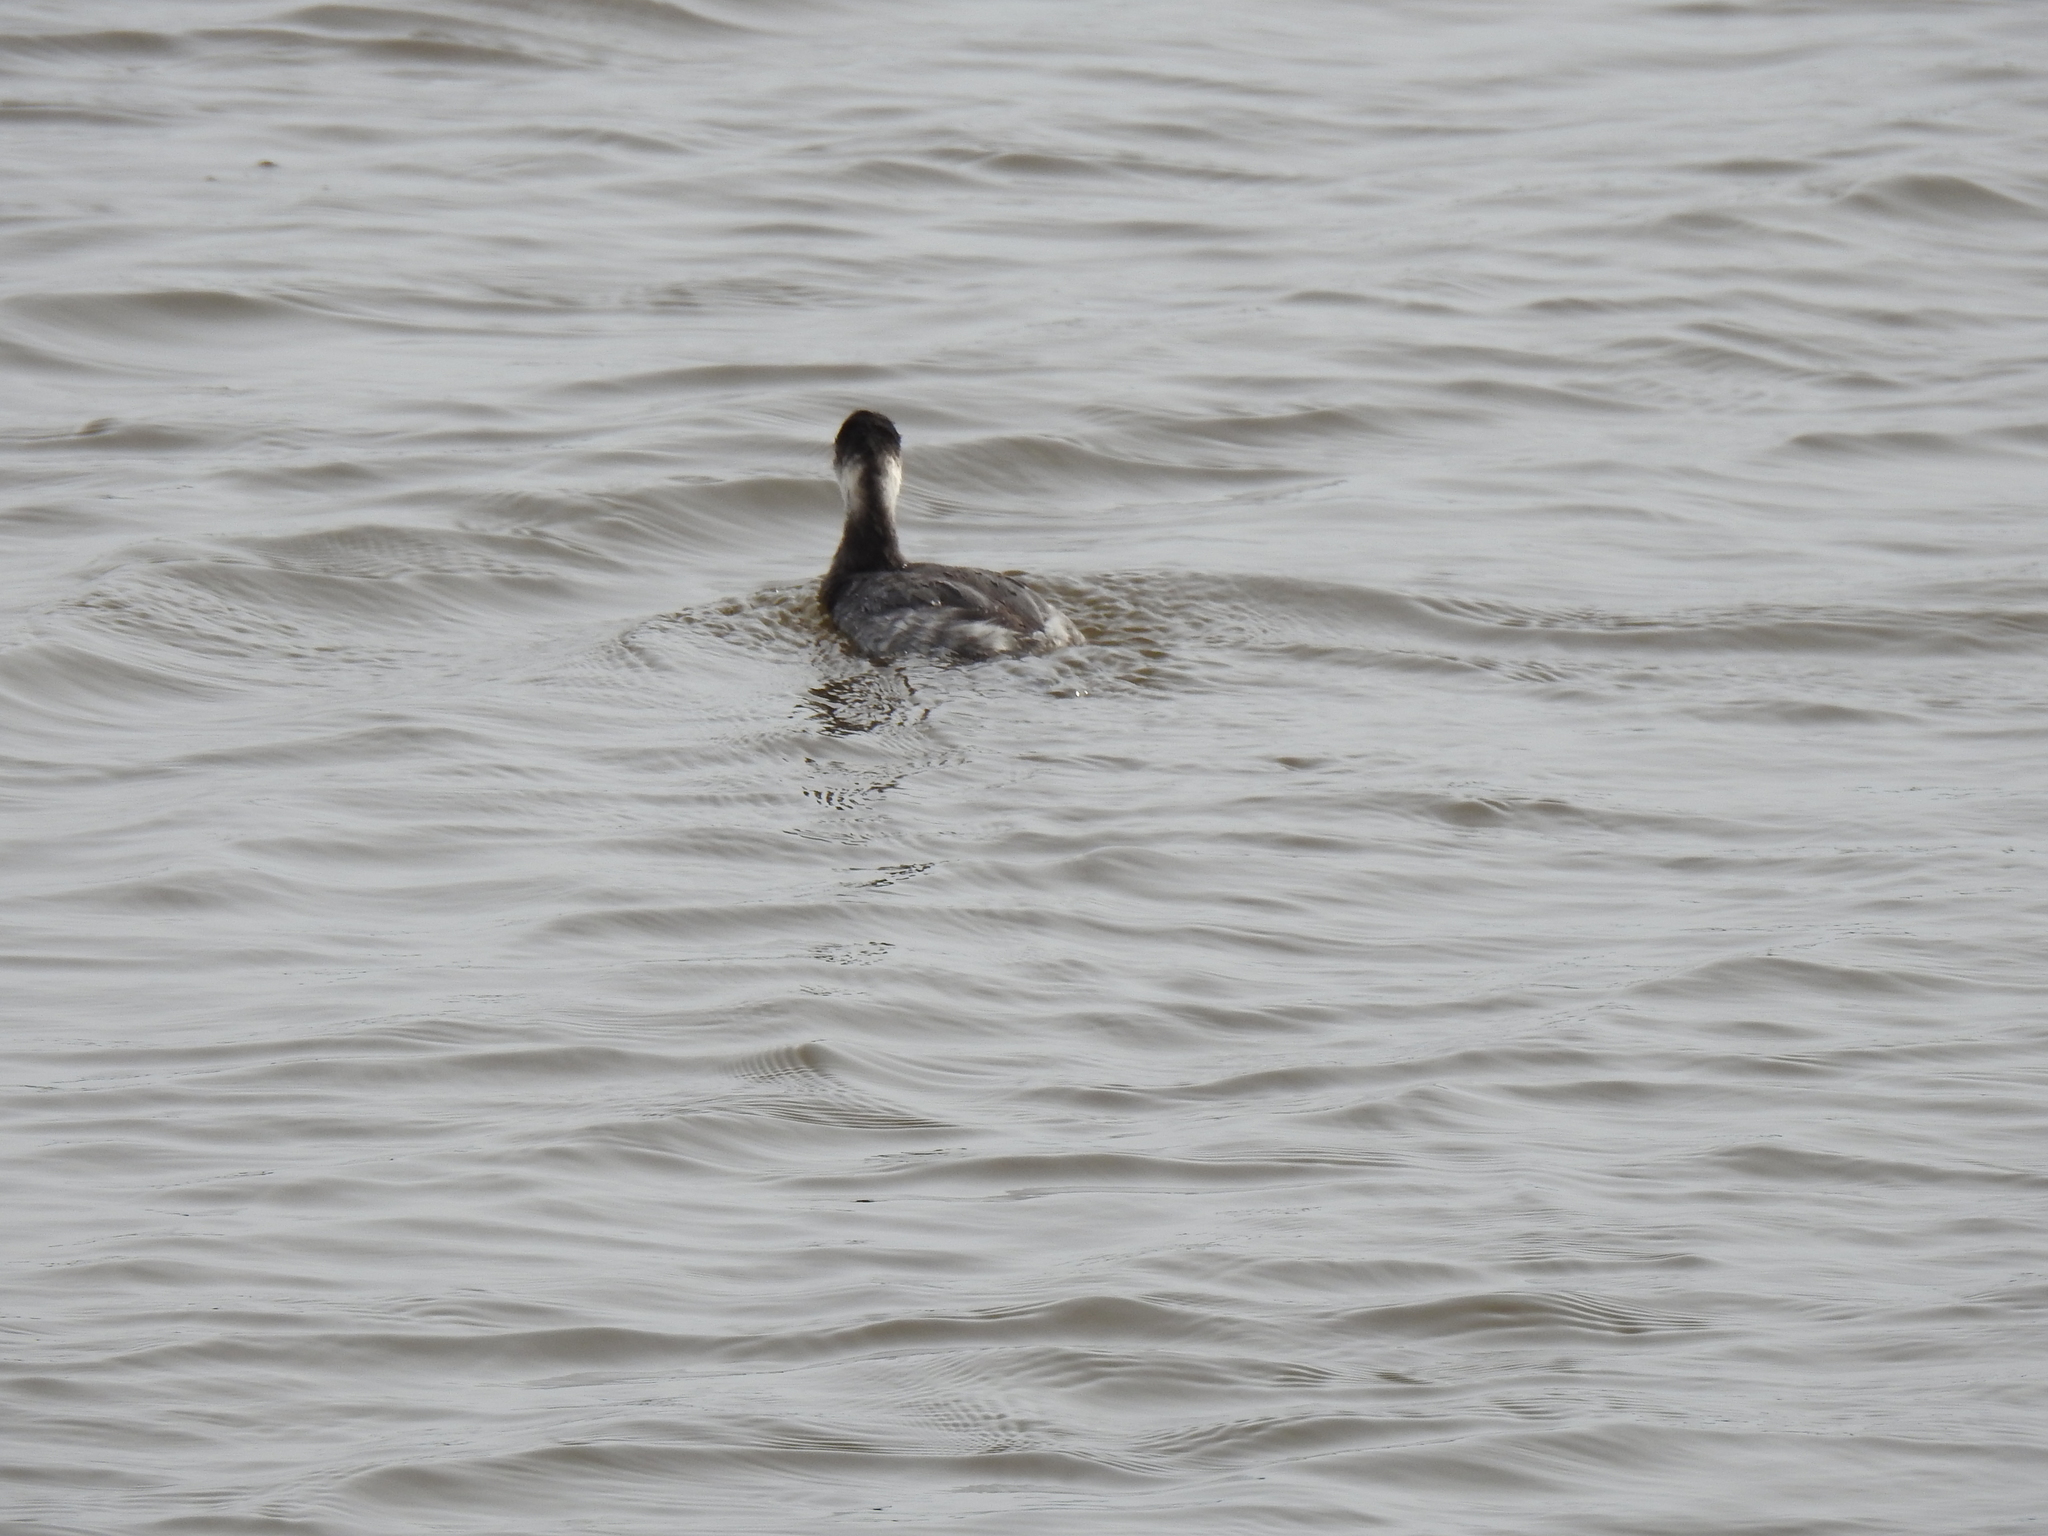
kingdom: Animalia
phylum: Chordata
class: Aves
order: Podicipediformes
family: Podicipedidae
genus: Podiceps
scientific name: Podiceps nigricollis
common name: Black-necked grebe
